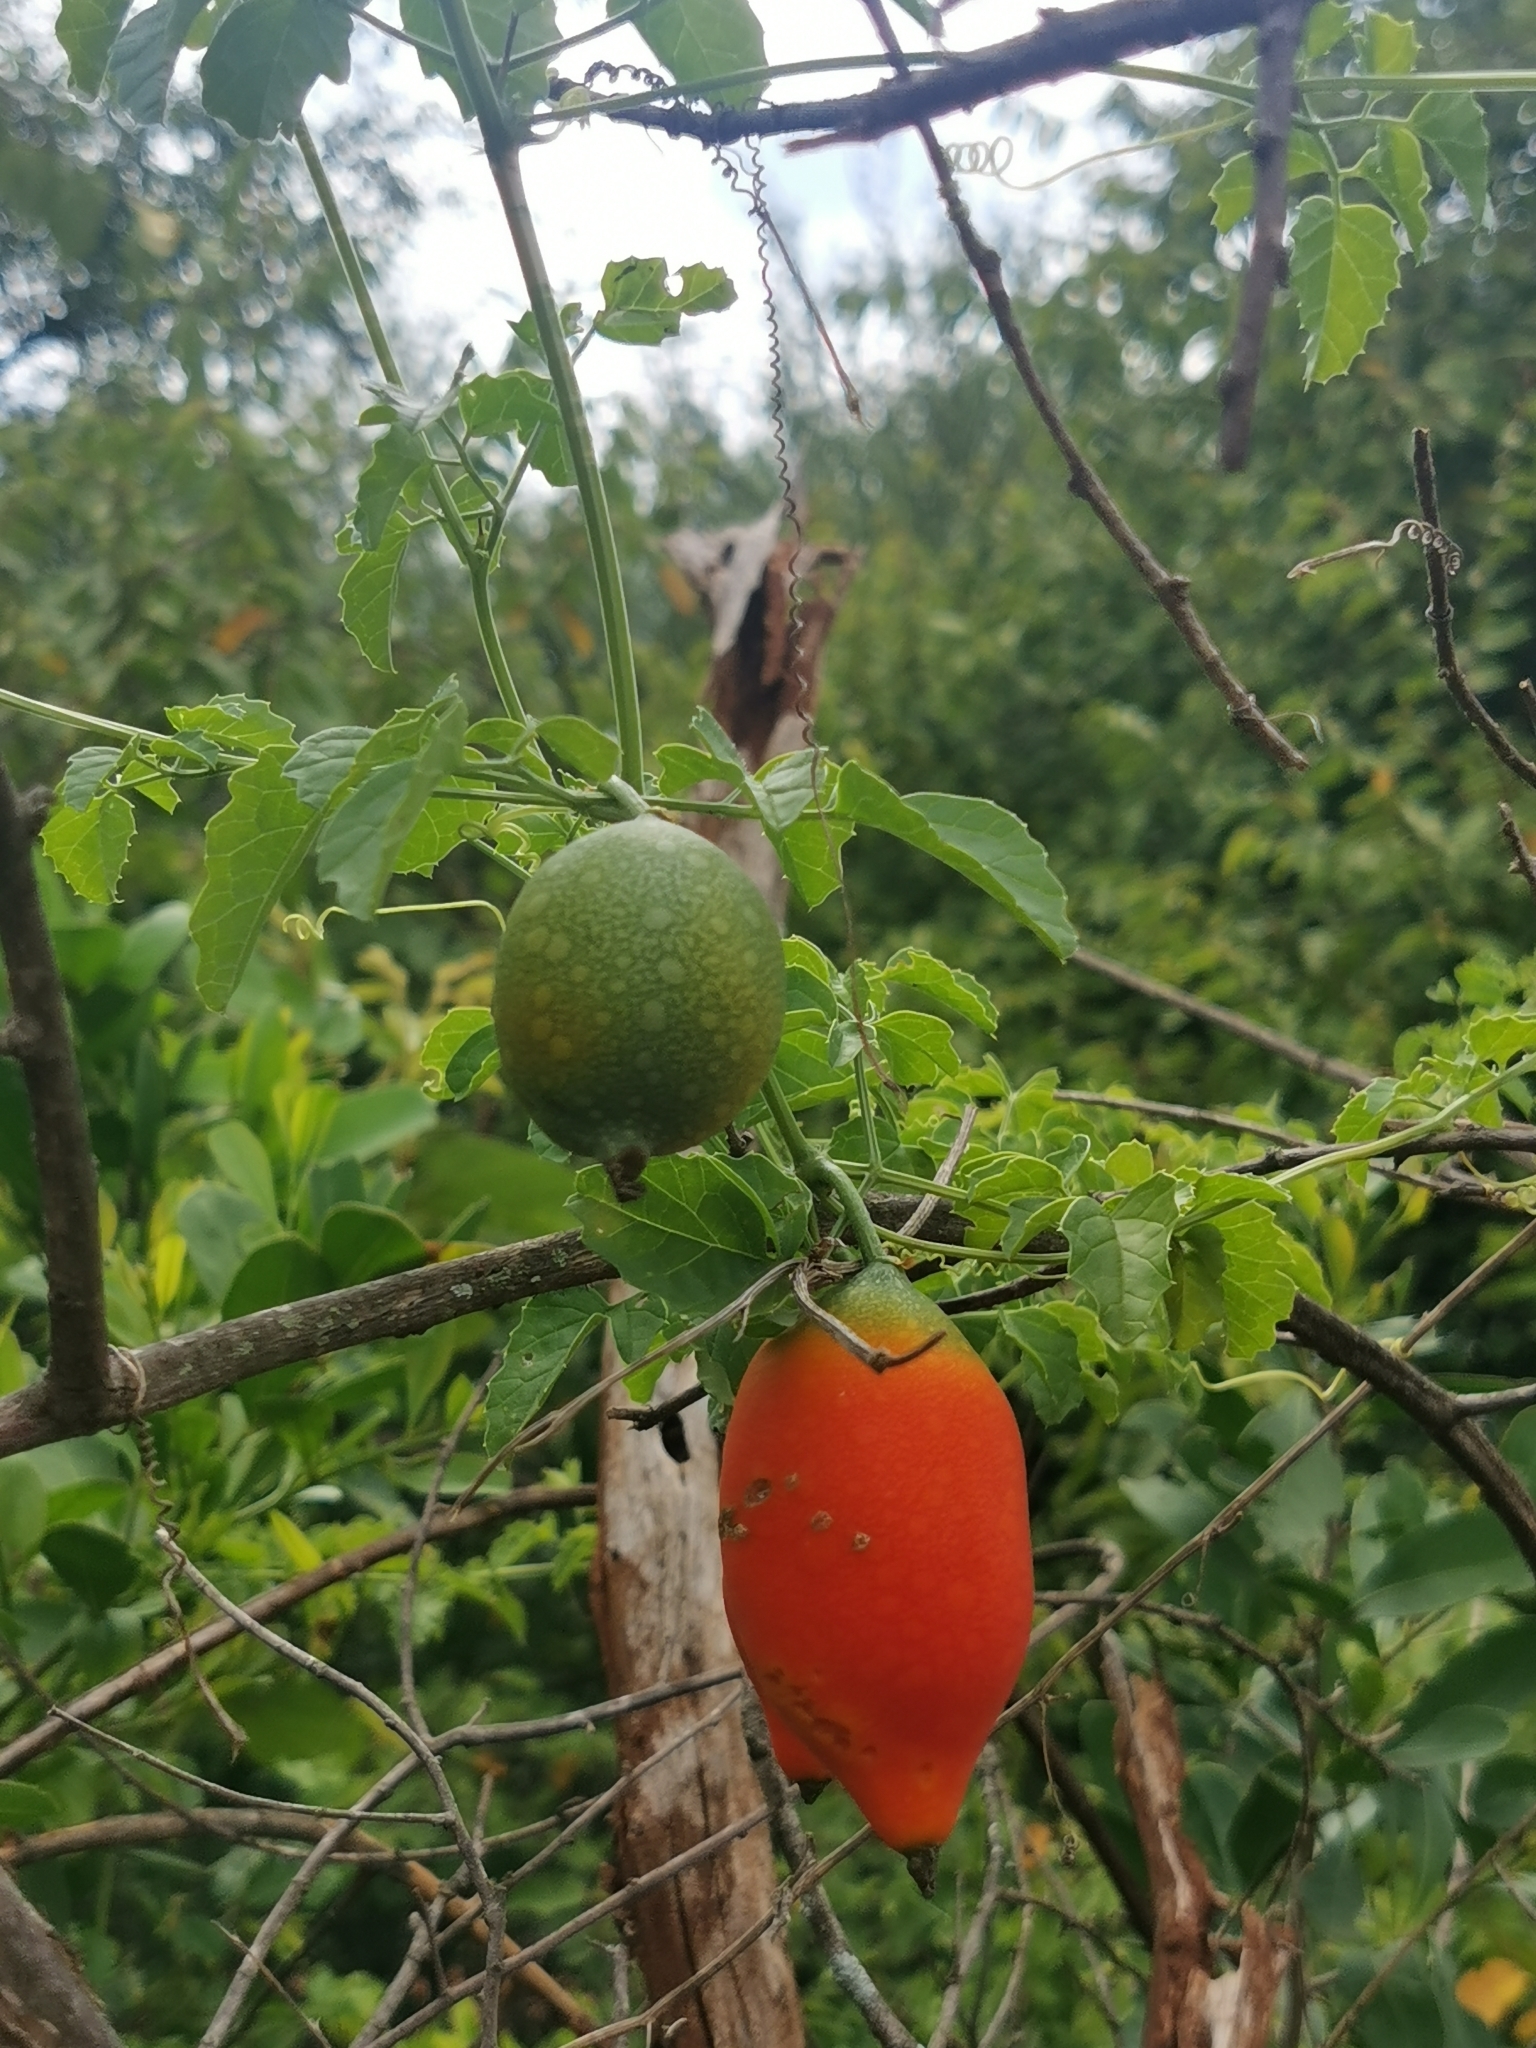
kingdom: Plantae
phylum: Tracheophyta
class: Magnoliopsida
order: Cucurbitales
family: Cucurbitaceae
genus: Momordica
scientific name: Momordica cardiospermoides
